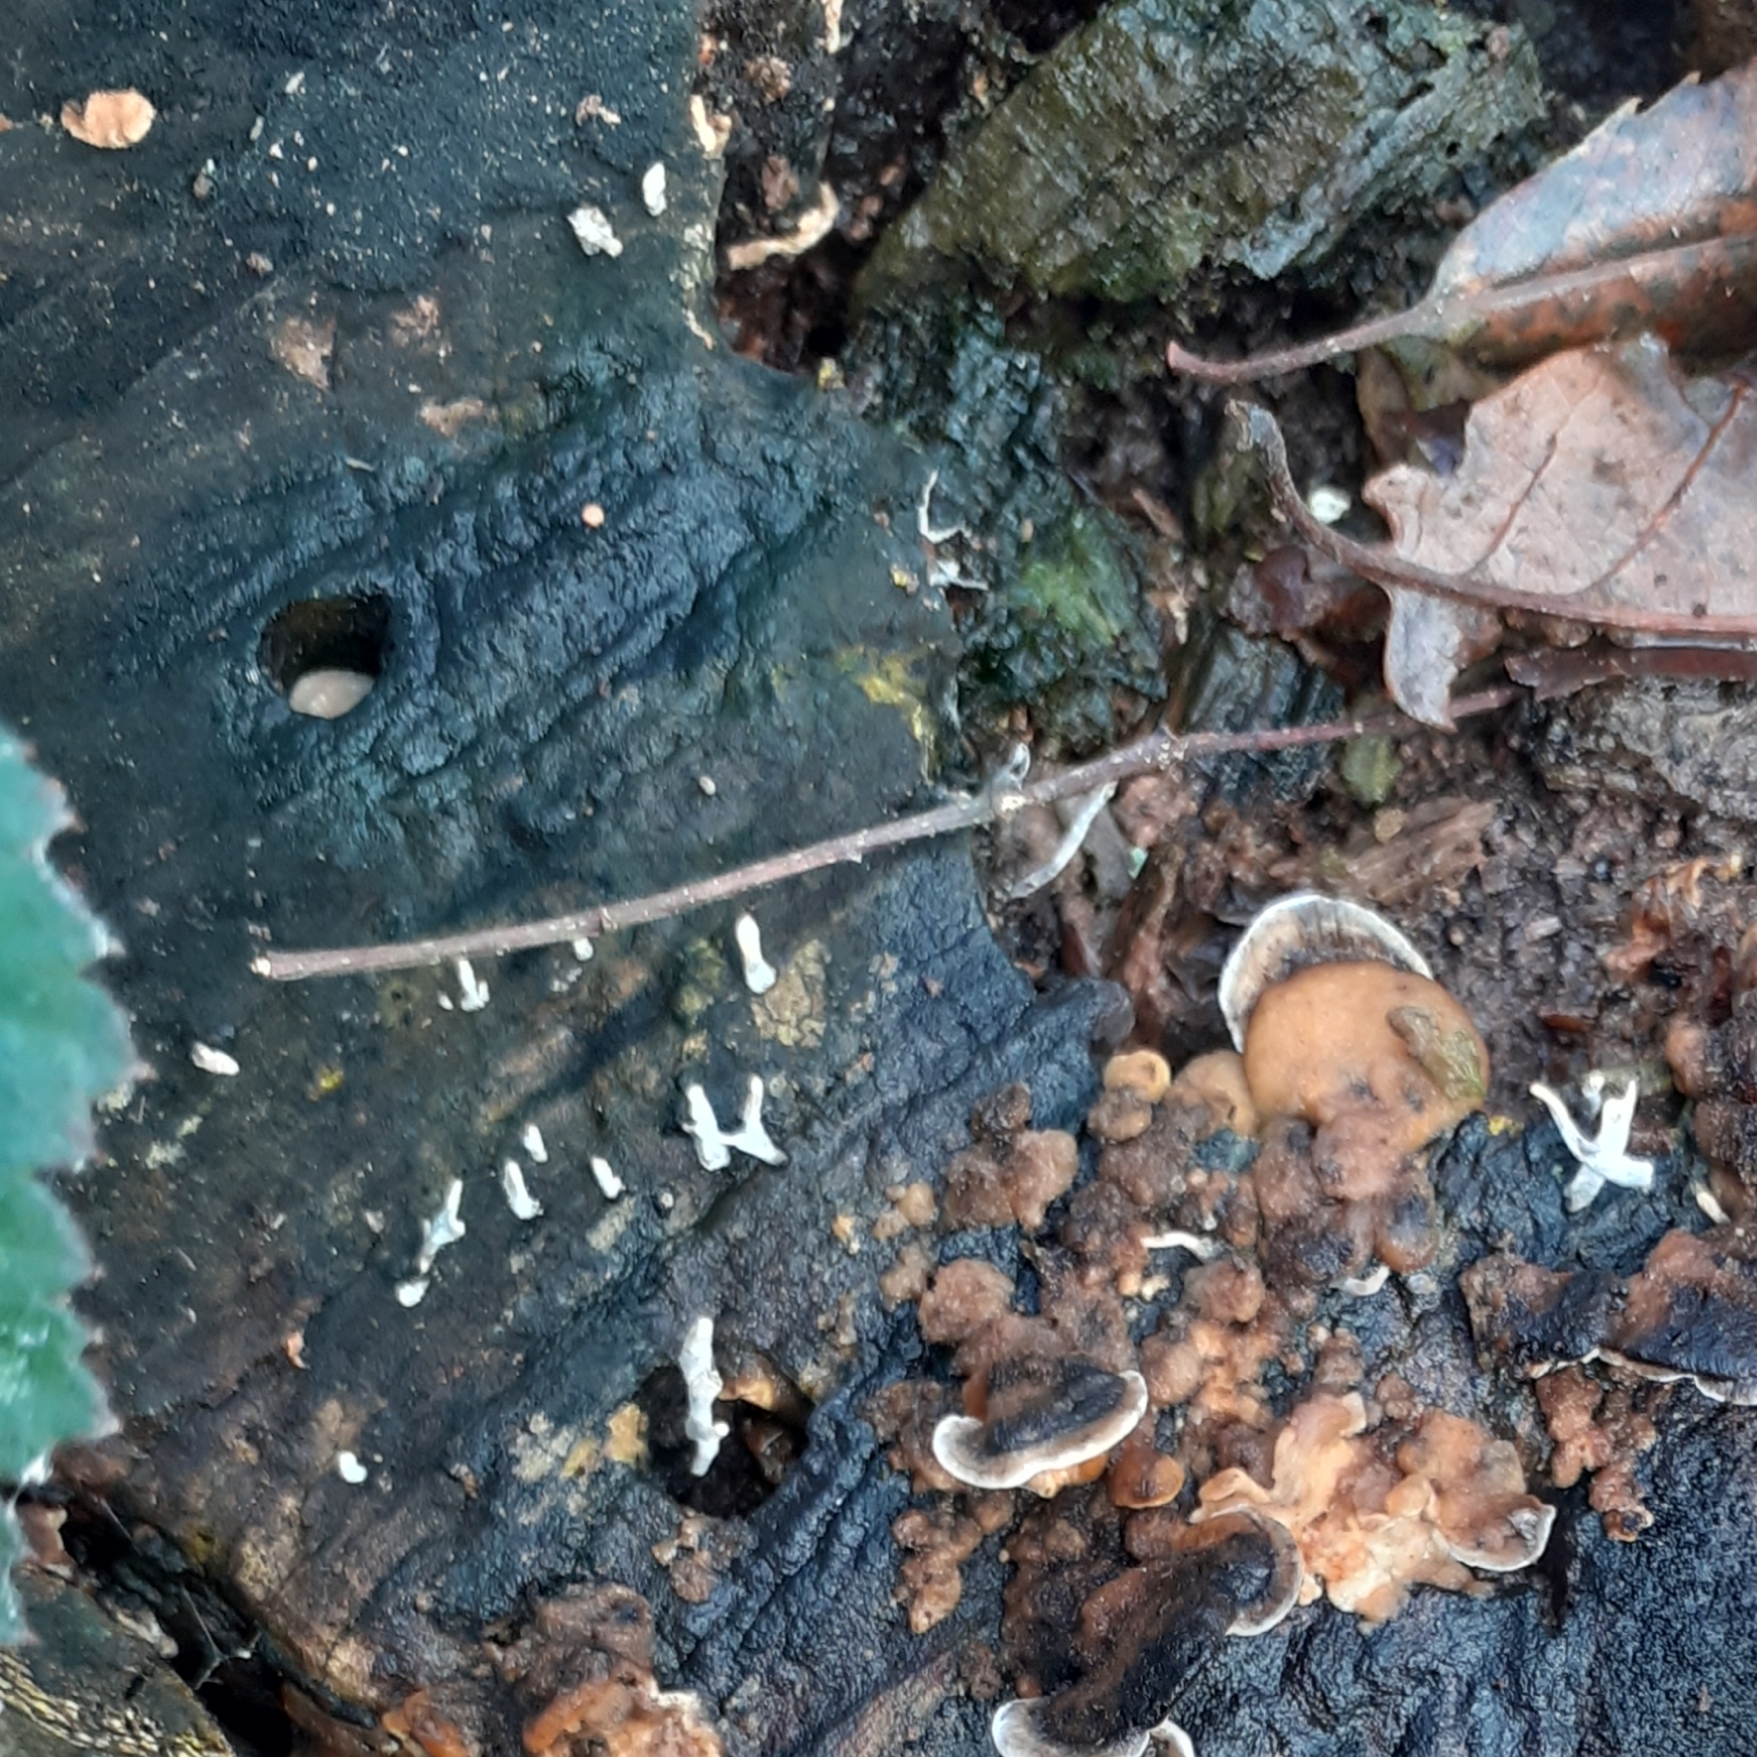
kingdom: Fungi
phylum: Ascomycota
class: Sordariomycetes
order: Xylariales
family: Xylariaceae
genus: Xylaria
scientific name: Xylaria hypoxylon
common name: Candle-snuff fungus
